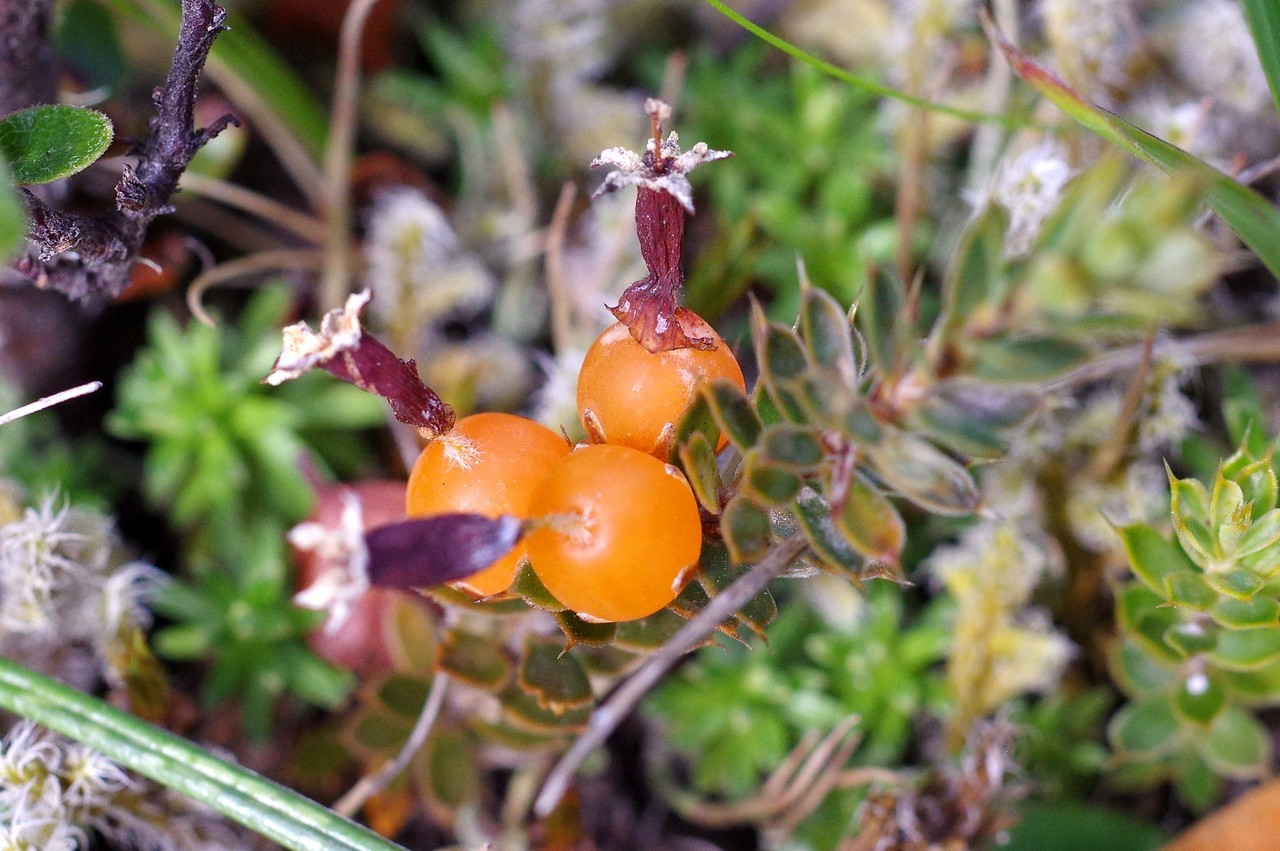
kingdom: Plantae
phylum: Tracheophyta
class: Magnoliopsida
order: Ericales
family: Ericaceae
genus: Styphelia
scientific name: Styphelia nesophila
